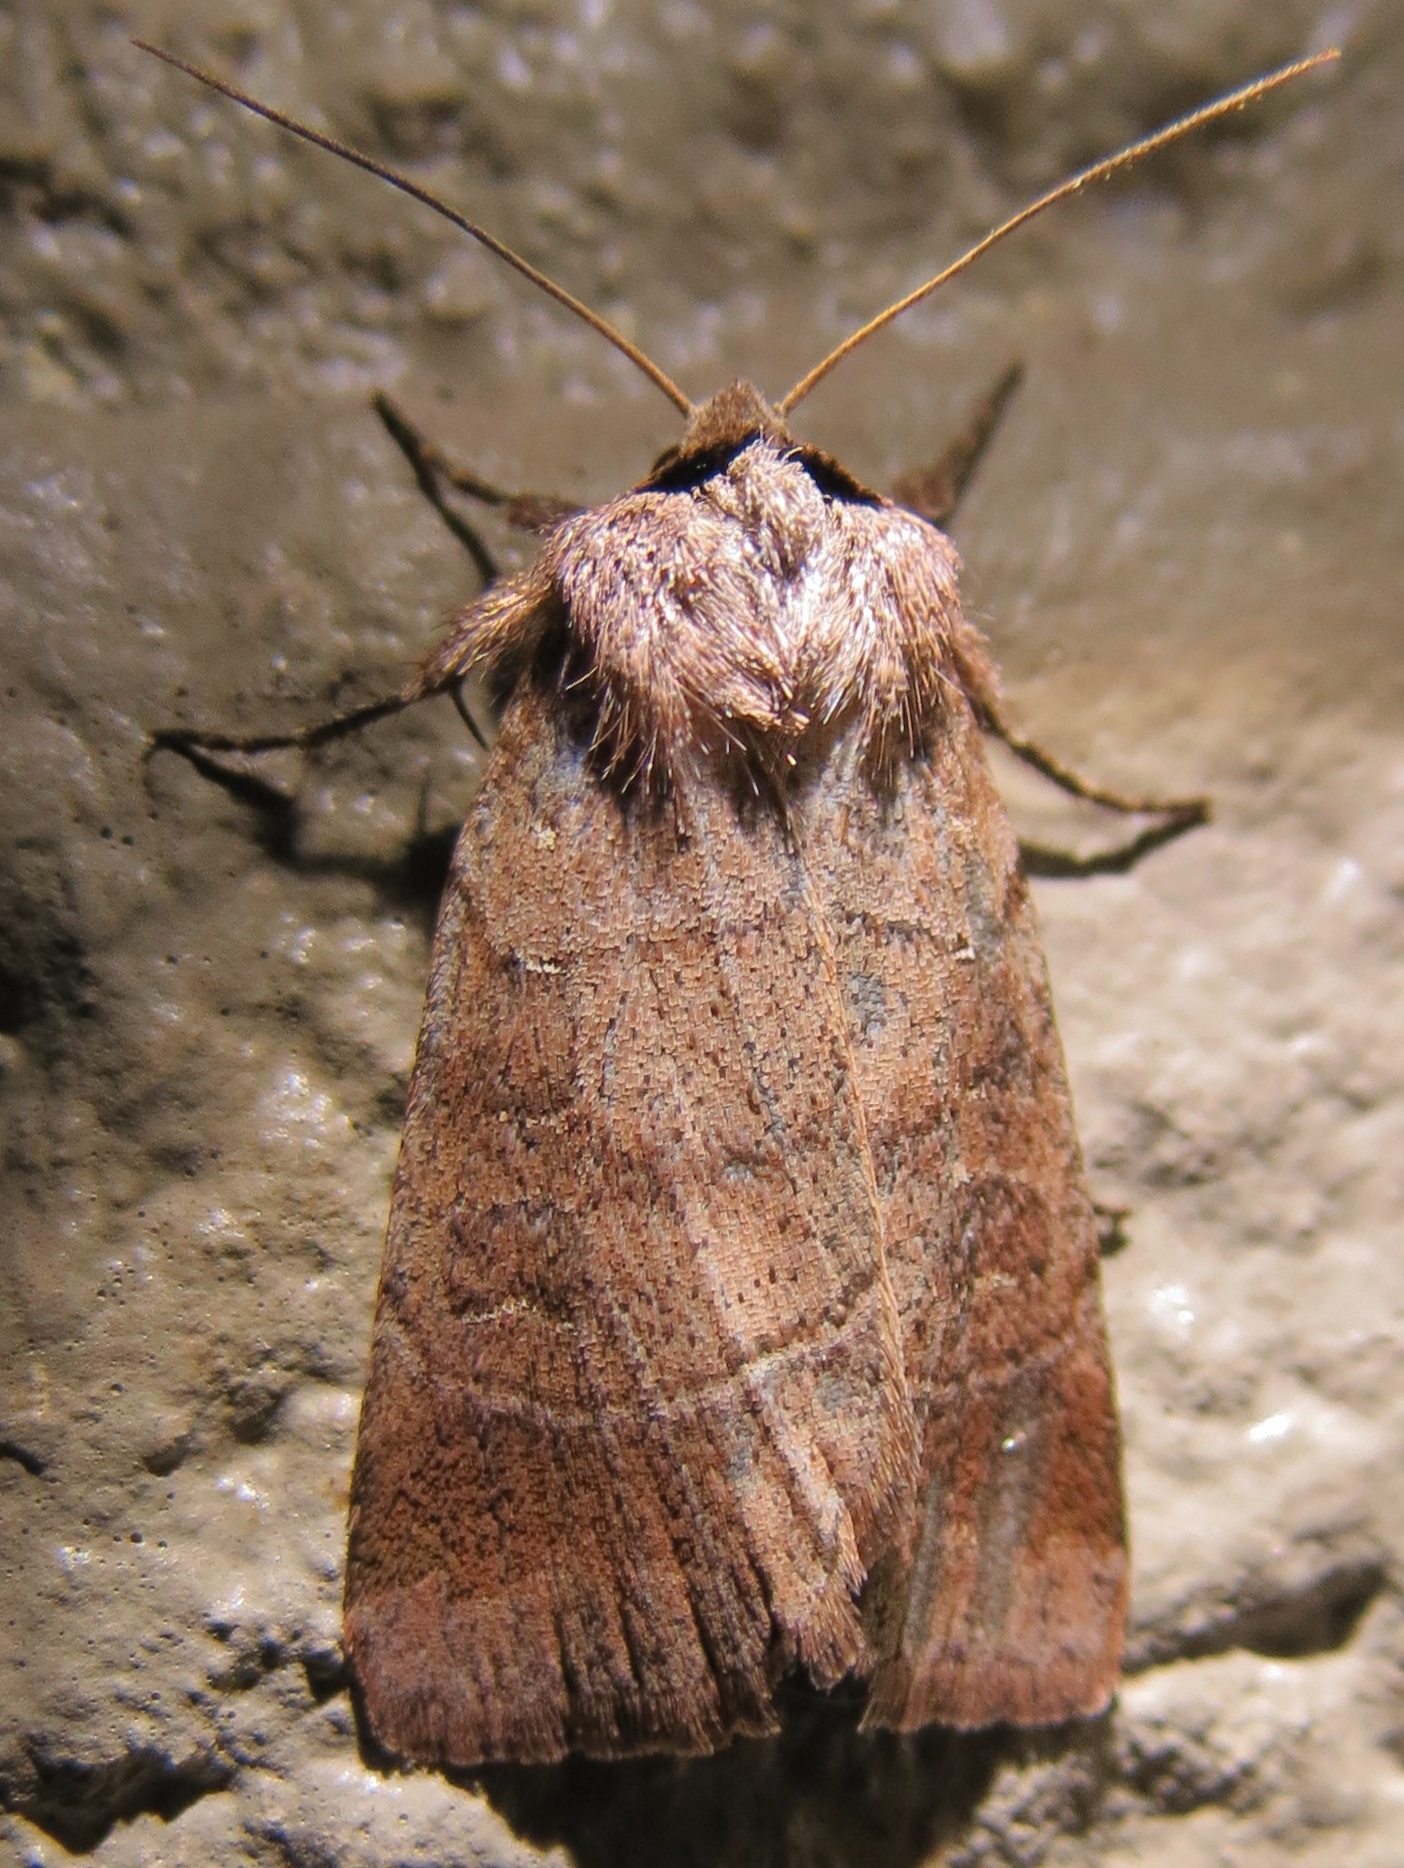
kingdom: Animalia
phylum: Arthropoda
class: Insecta
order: Lepidoptera
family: Noctuidae
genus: Agnorisma
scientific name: Agnorisma badinodis
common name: Pale-banded dart
